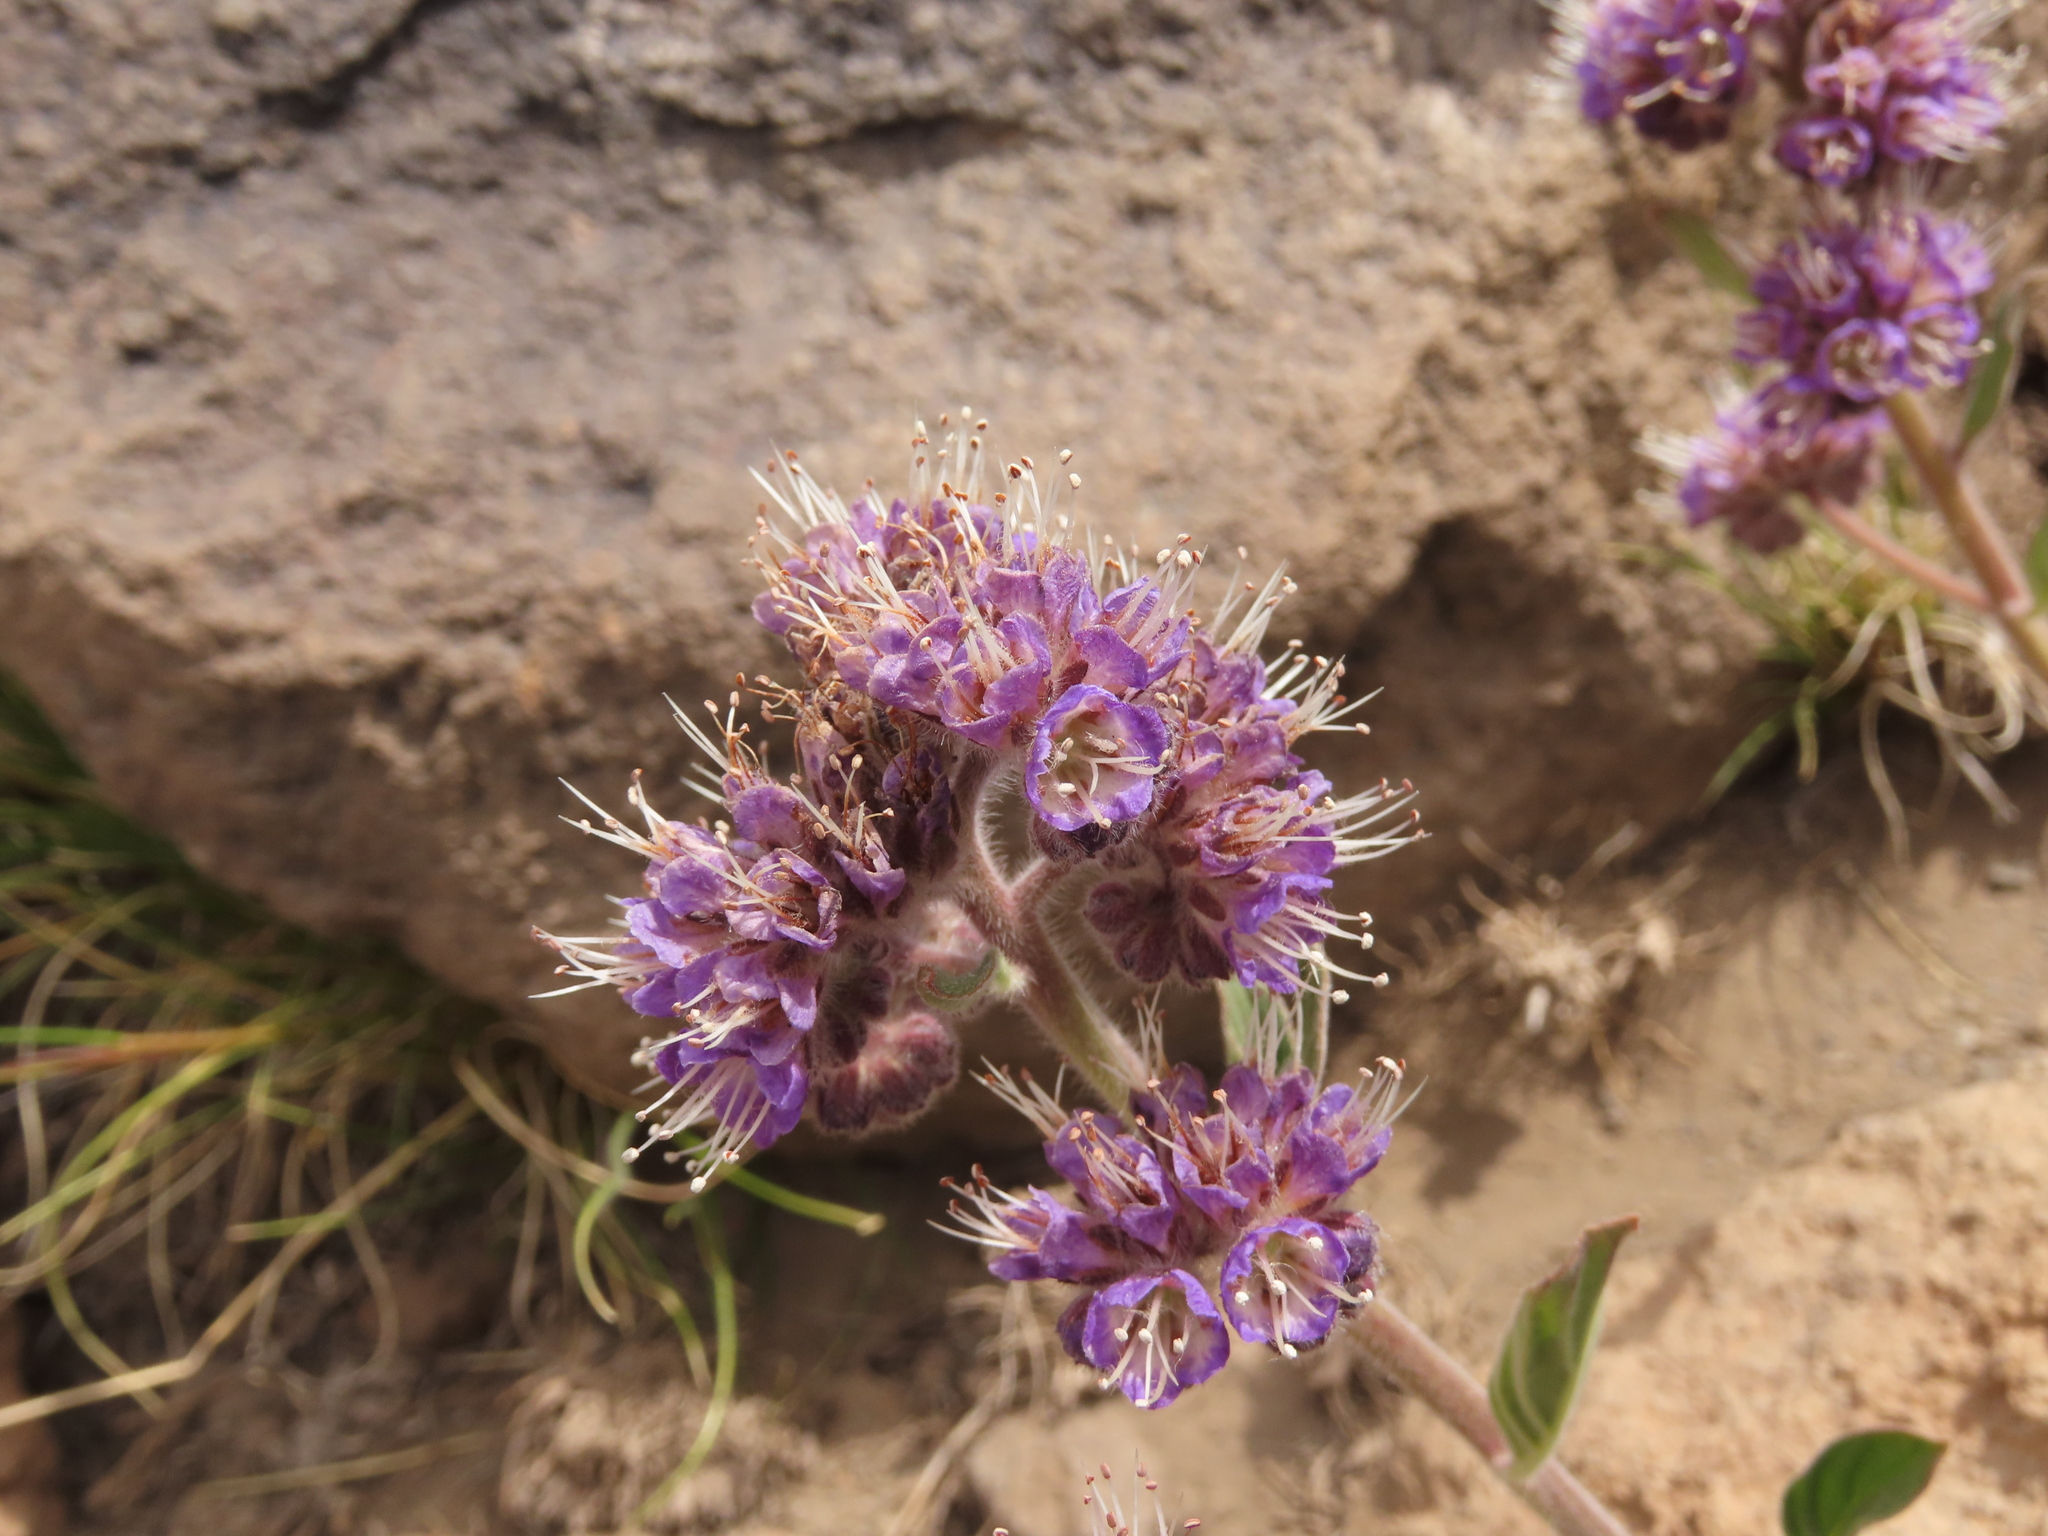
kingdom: Plantae
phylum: Tracheophyta
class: Magnoliopsida
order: Boraginales
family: Hydrophyllaceae
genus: Phacelia
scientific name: Phacelia secunda
